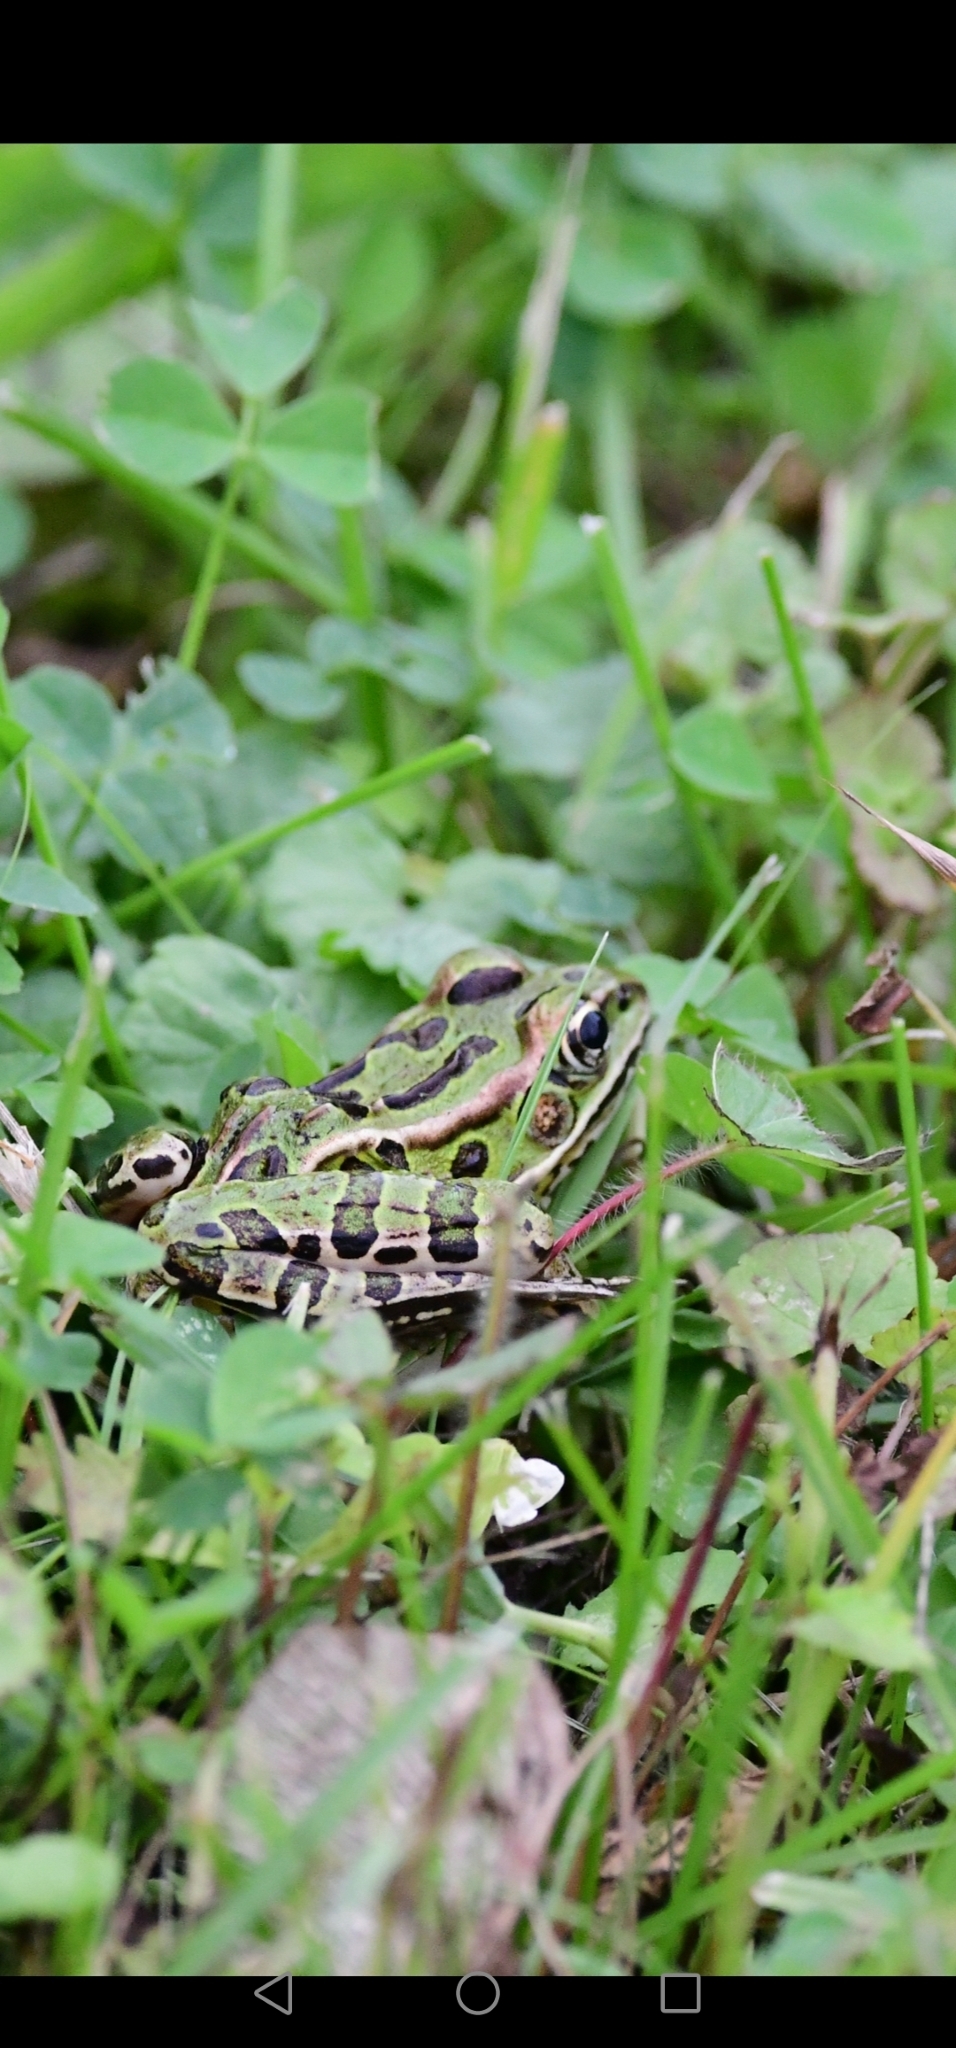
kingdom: Animalia
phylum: Chordata
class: Amphibia
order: Anura
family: Ranidae
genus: Lithobates
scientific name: Lithobates pipiens
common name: Northern leopard frog
